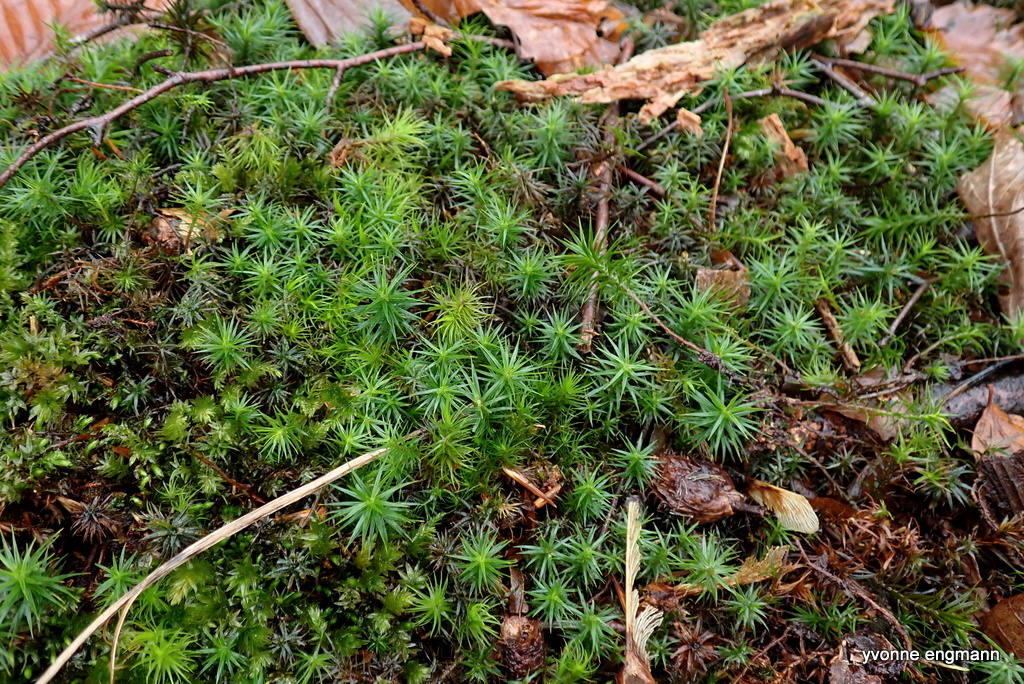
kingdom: Plantae
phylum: Bryophyta
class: Polytrichopsida
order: Polytrichales
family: Polytrichaceae
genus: Polytrichum
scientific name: Polytrichum formosum
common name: Bank haircap moss
